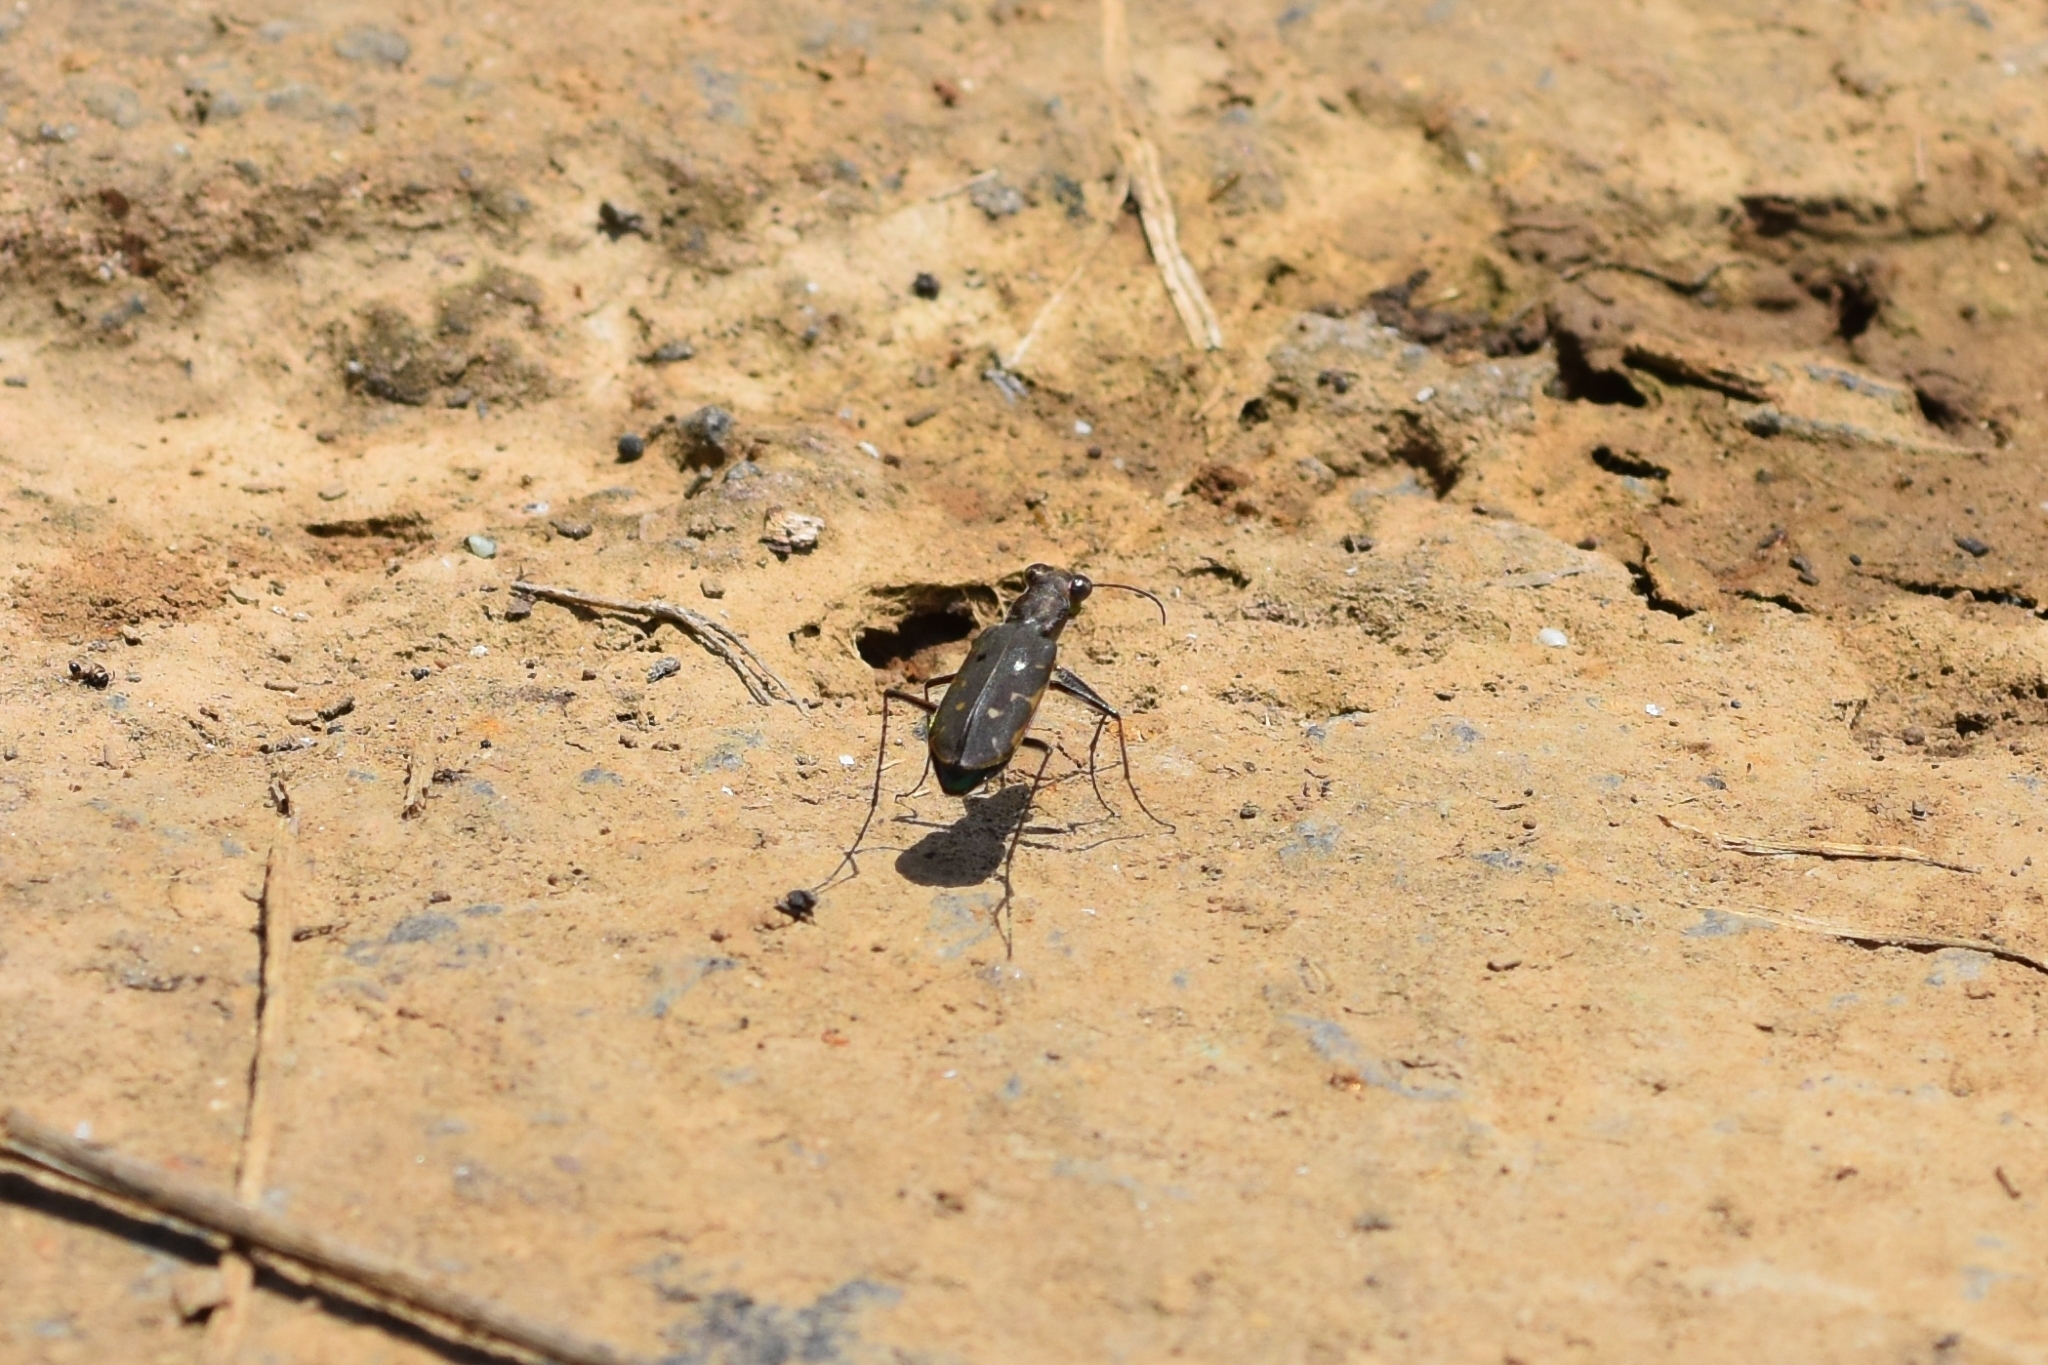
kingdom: Animalia
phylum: Arthropoda
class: Insecta
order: Coleoptera
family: Carabidae
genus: Myriochila
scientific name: Myriochila specularis
